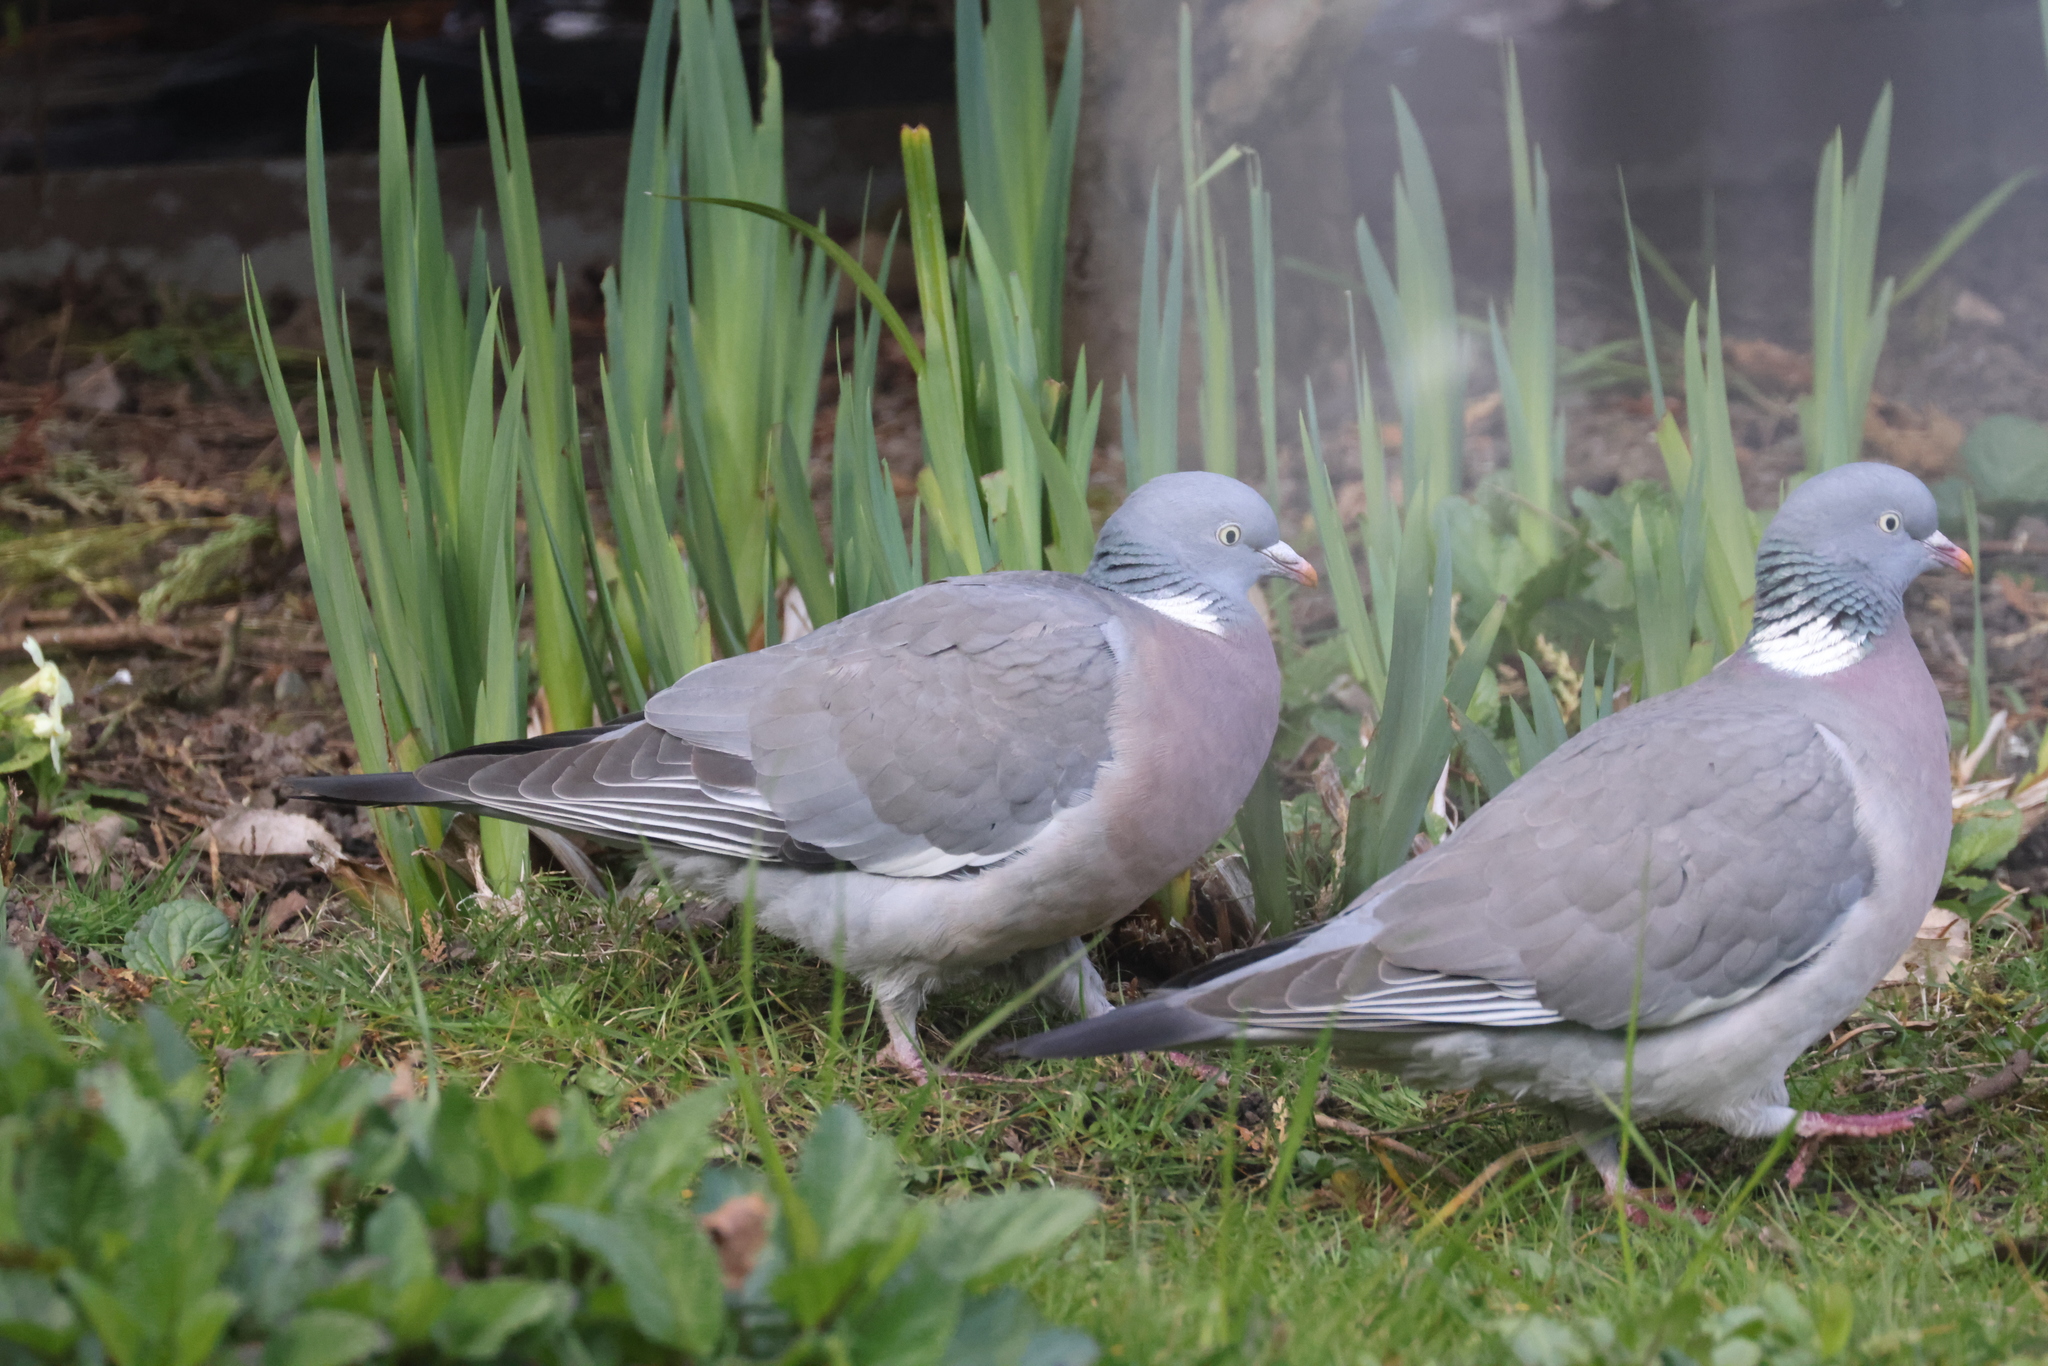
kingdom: Animalia
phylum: Chordata
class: Aves
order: Columbiformes
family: Columbidae
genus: Columba
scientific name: Columba palumbus
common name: Common wood pigeon
